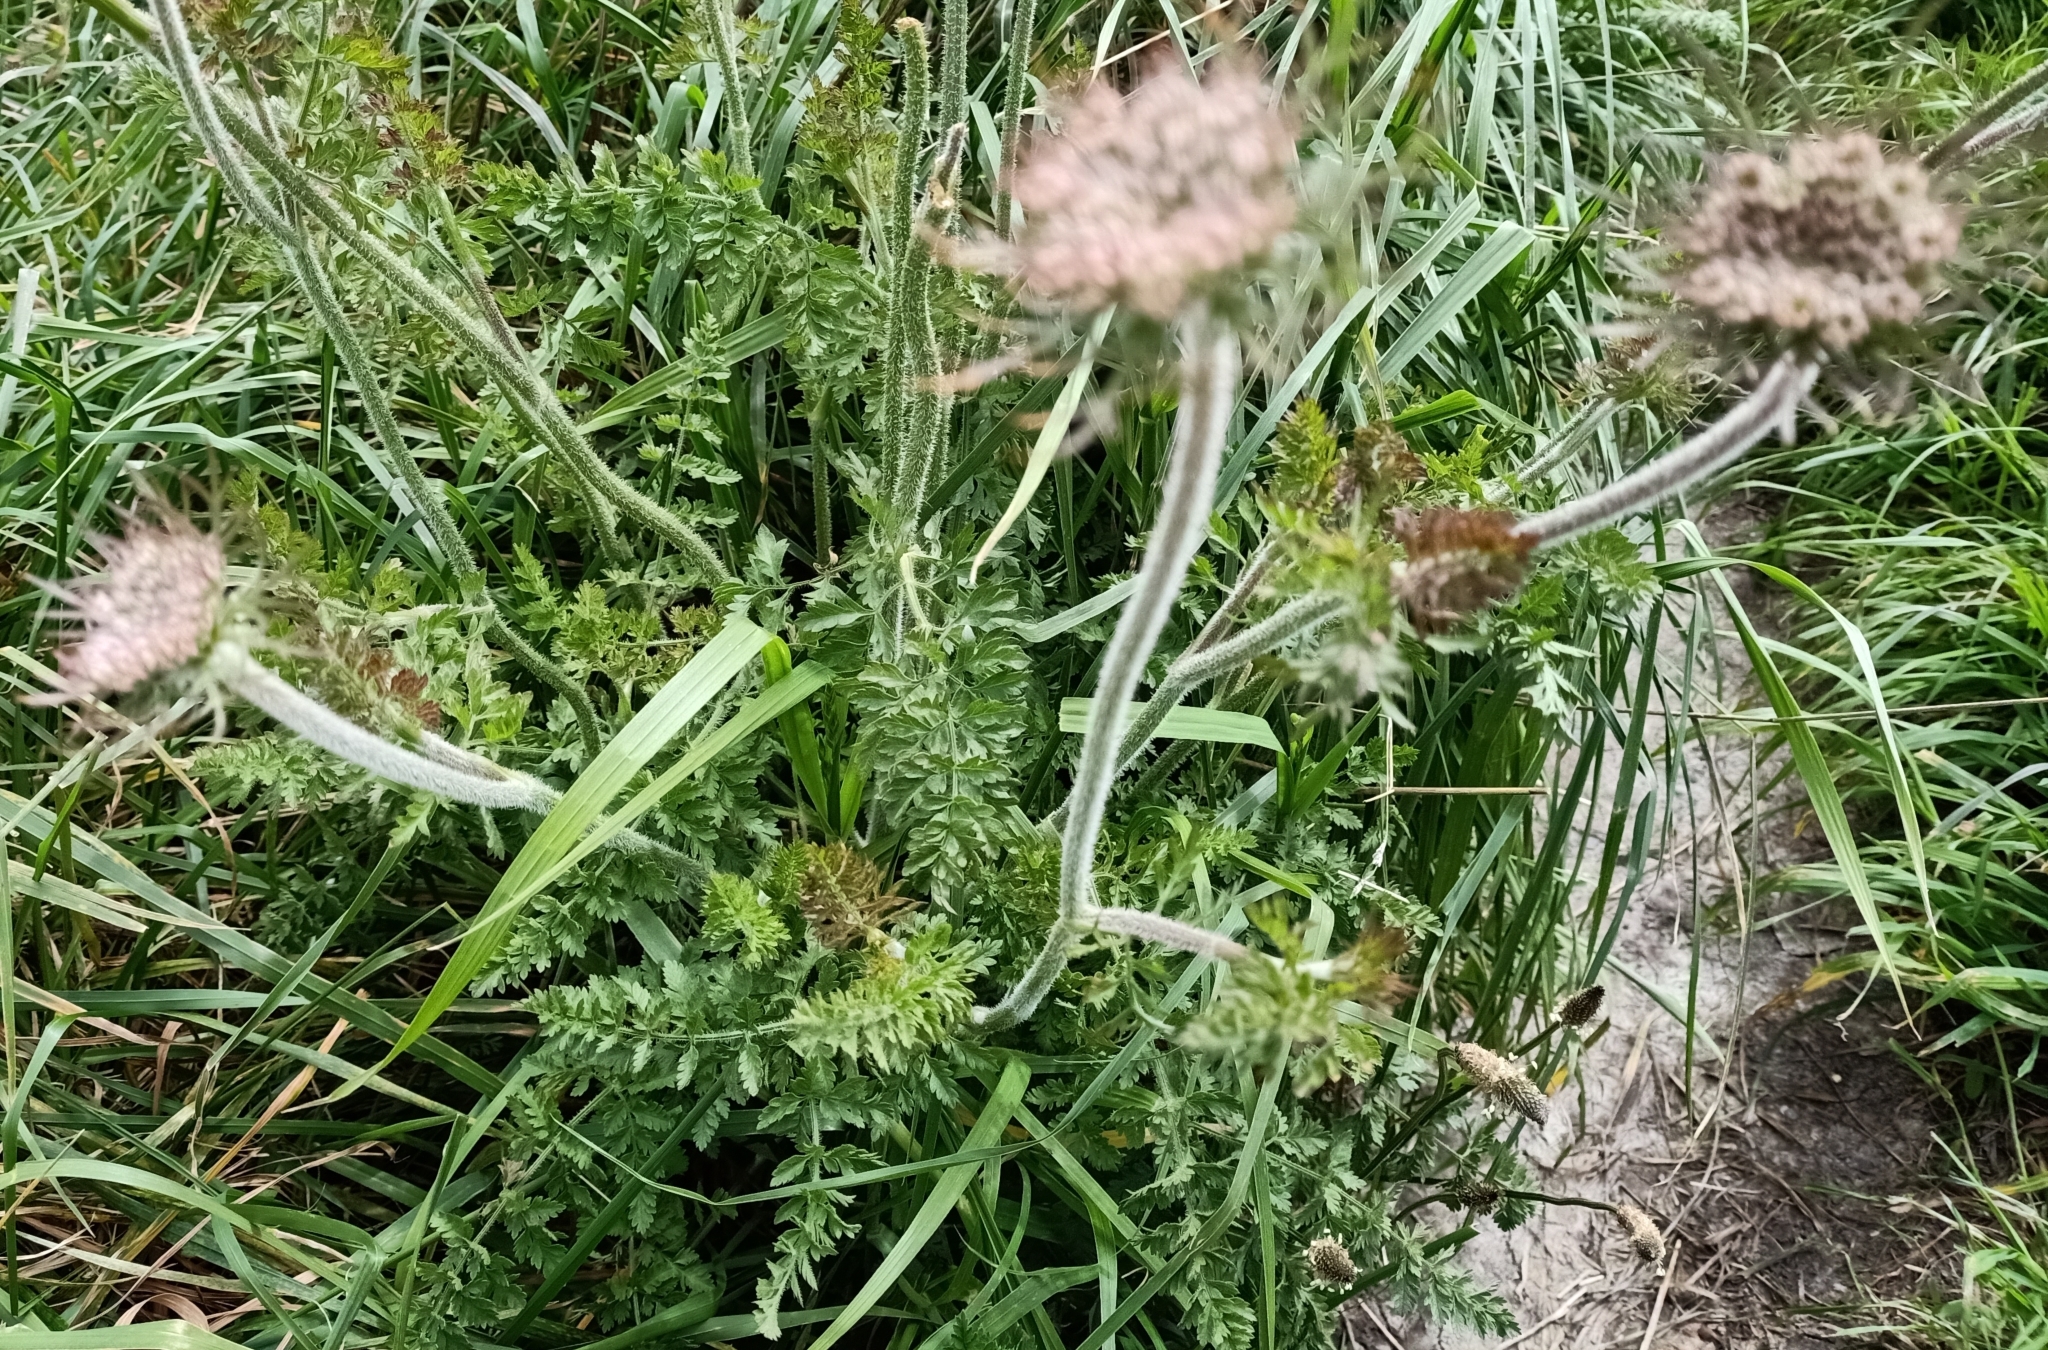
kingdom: Plantae
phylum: Tracheophyta
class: Magnoliopsida
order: Apiales
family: Apiaceae
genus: Daucus
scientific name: Daucus carota
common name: Wild carrot
